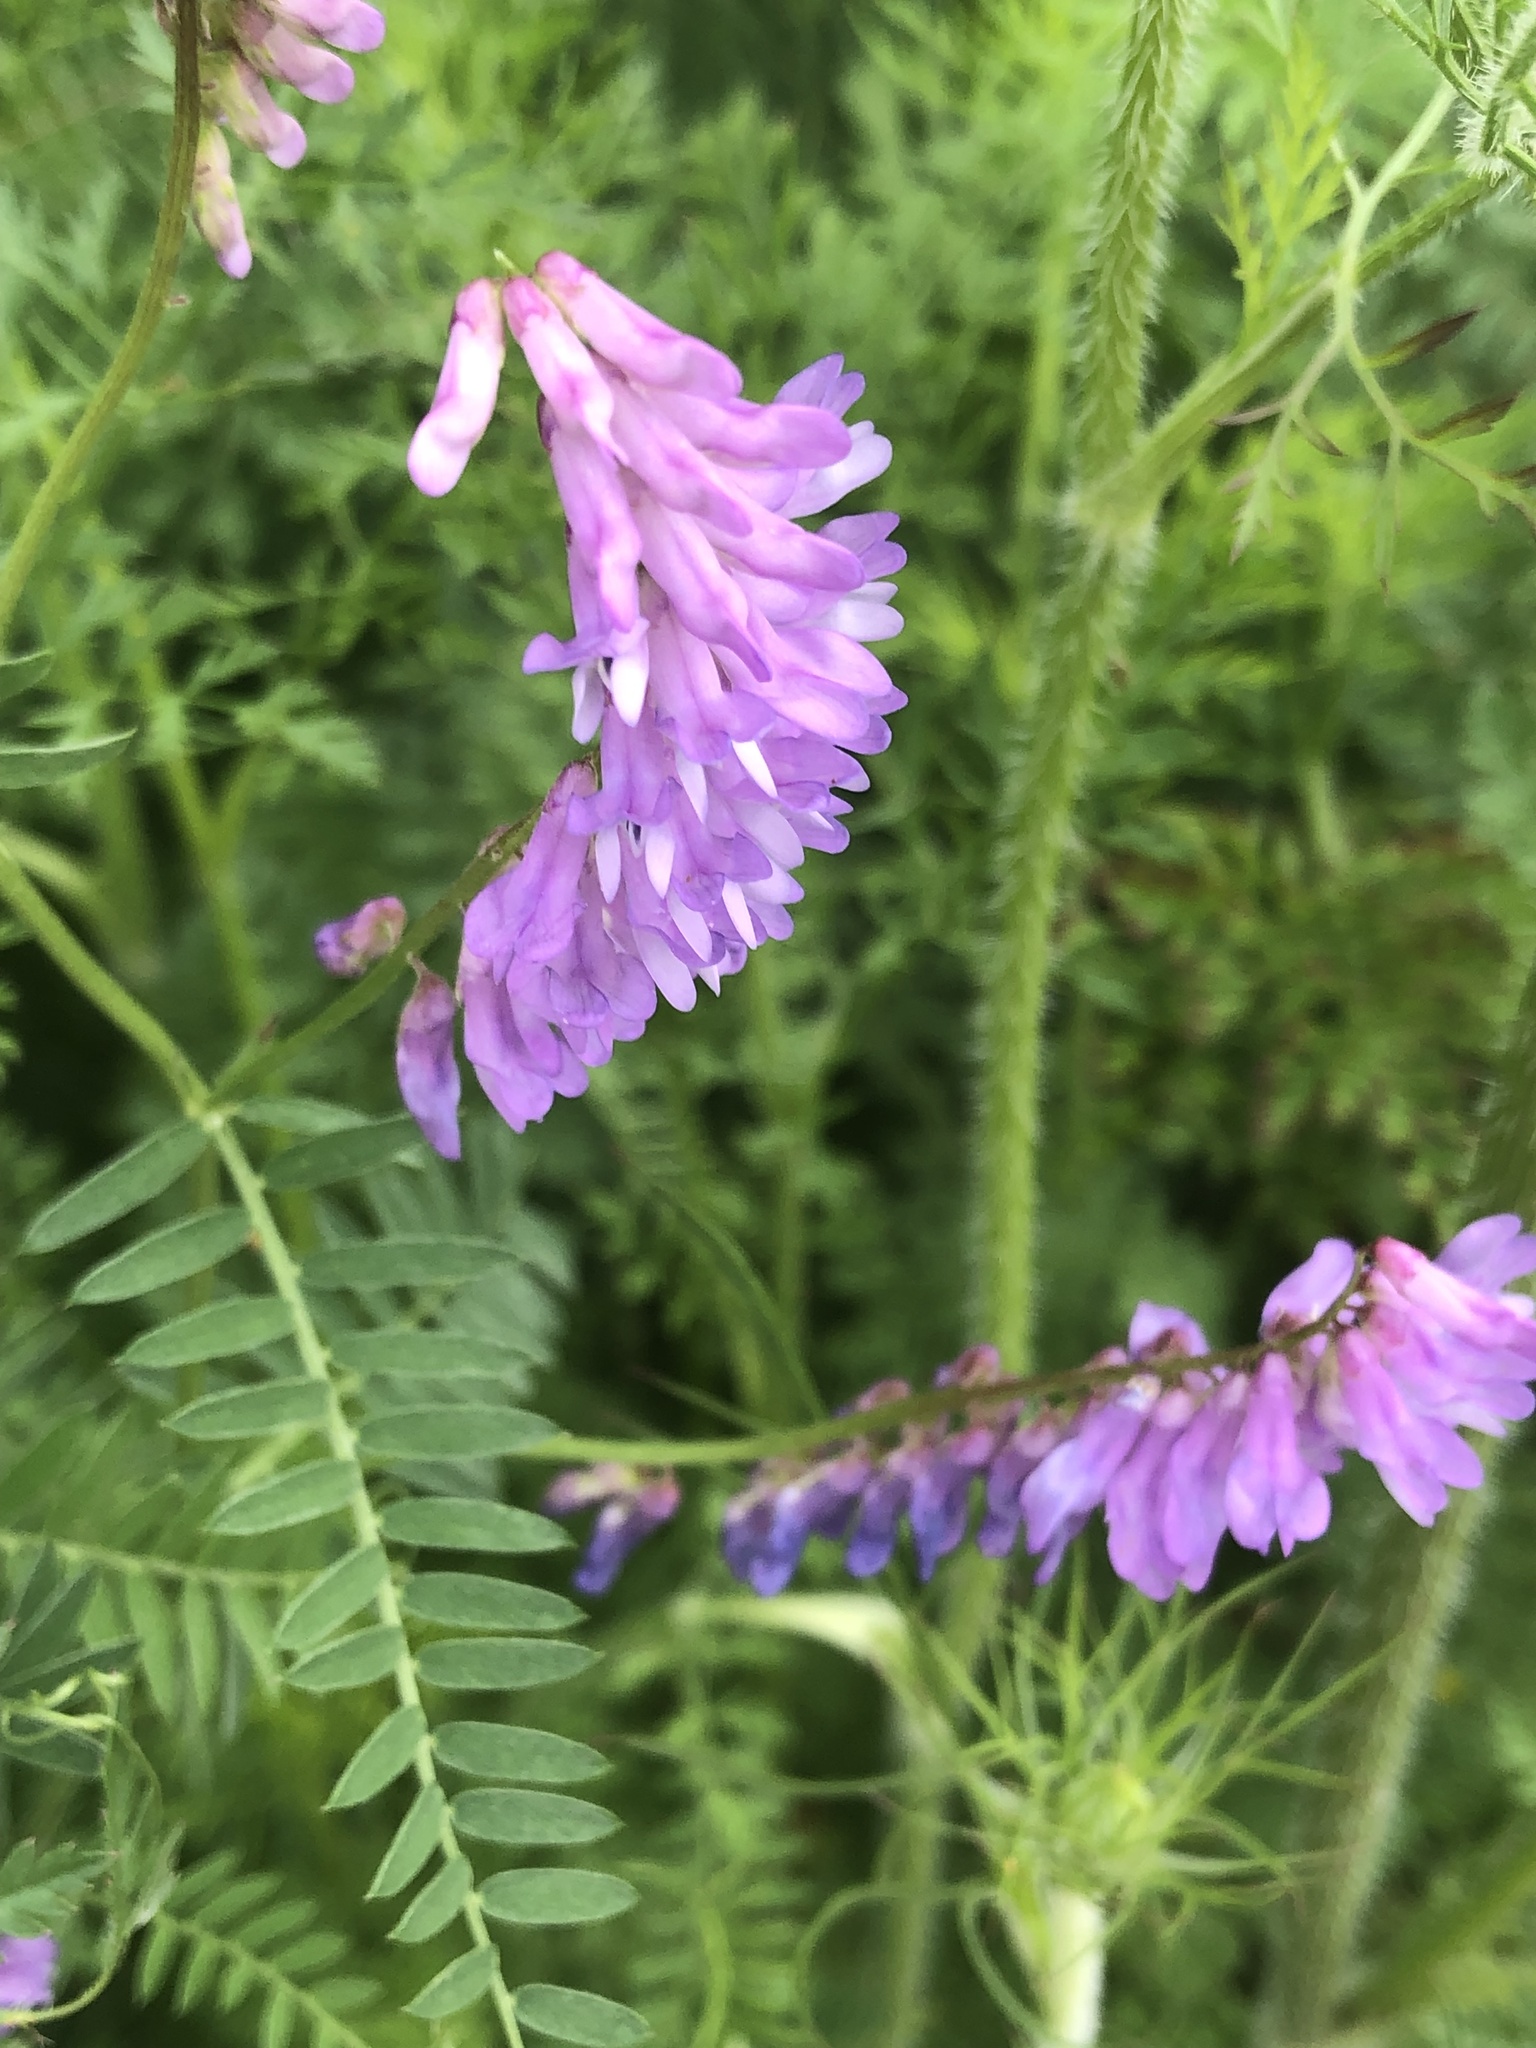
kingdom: Plantae
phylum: Tracheophyta
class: Magnoliopsida
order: Fabales
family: Fabaceae
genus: Vicia
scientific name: Vicia cracca
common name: Bird vetch
